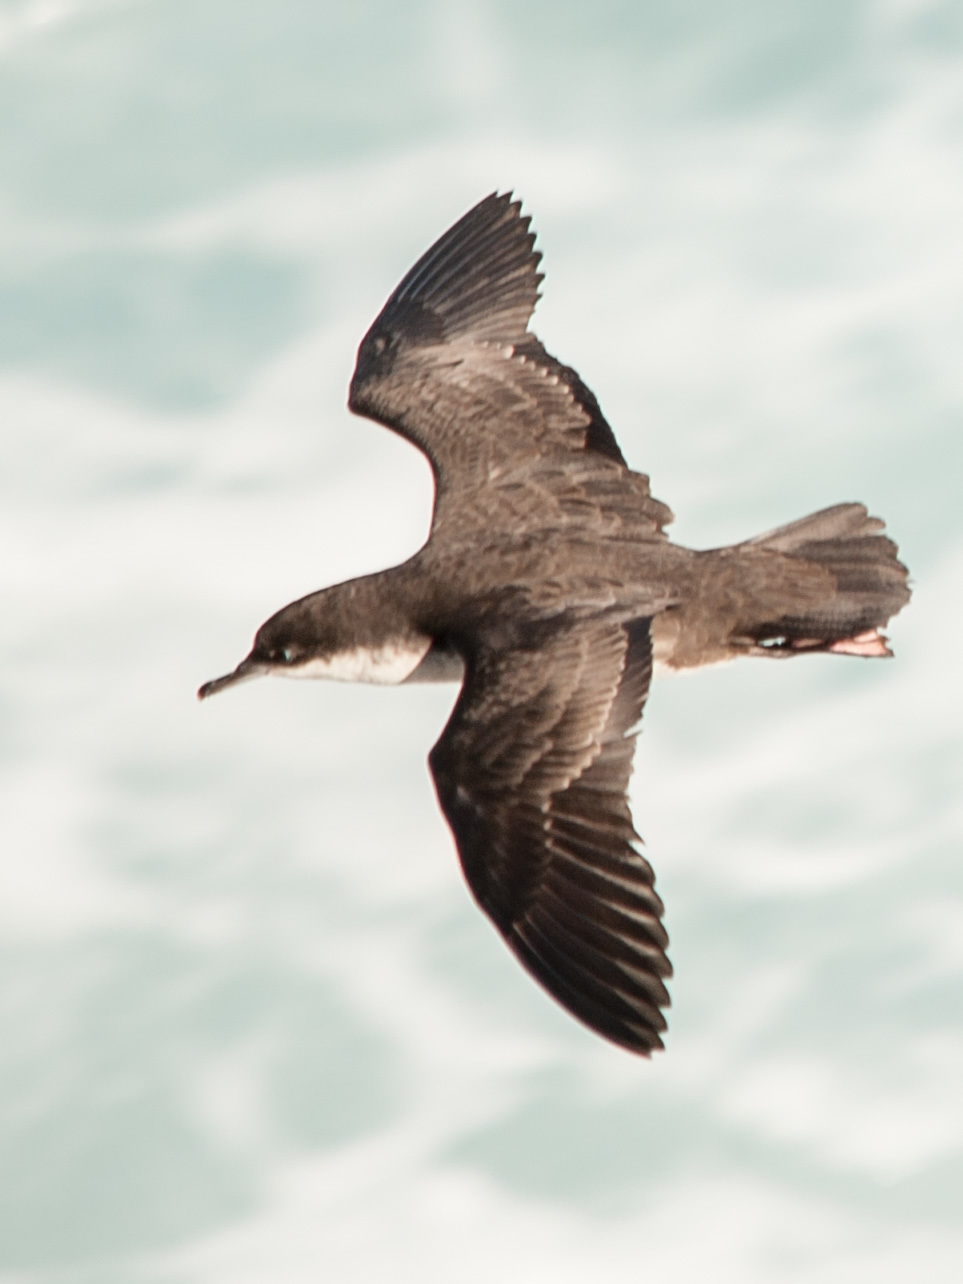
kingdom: Animalia
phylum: Chordata
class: Aves
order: Procellariiformes
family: Procellariidae
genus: Puffinus
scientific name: Puffinus subalaris
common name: Galapagos shearwater
